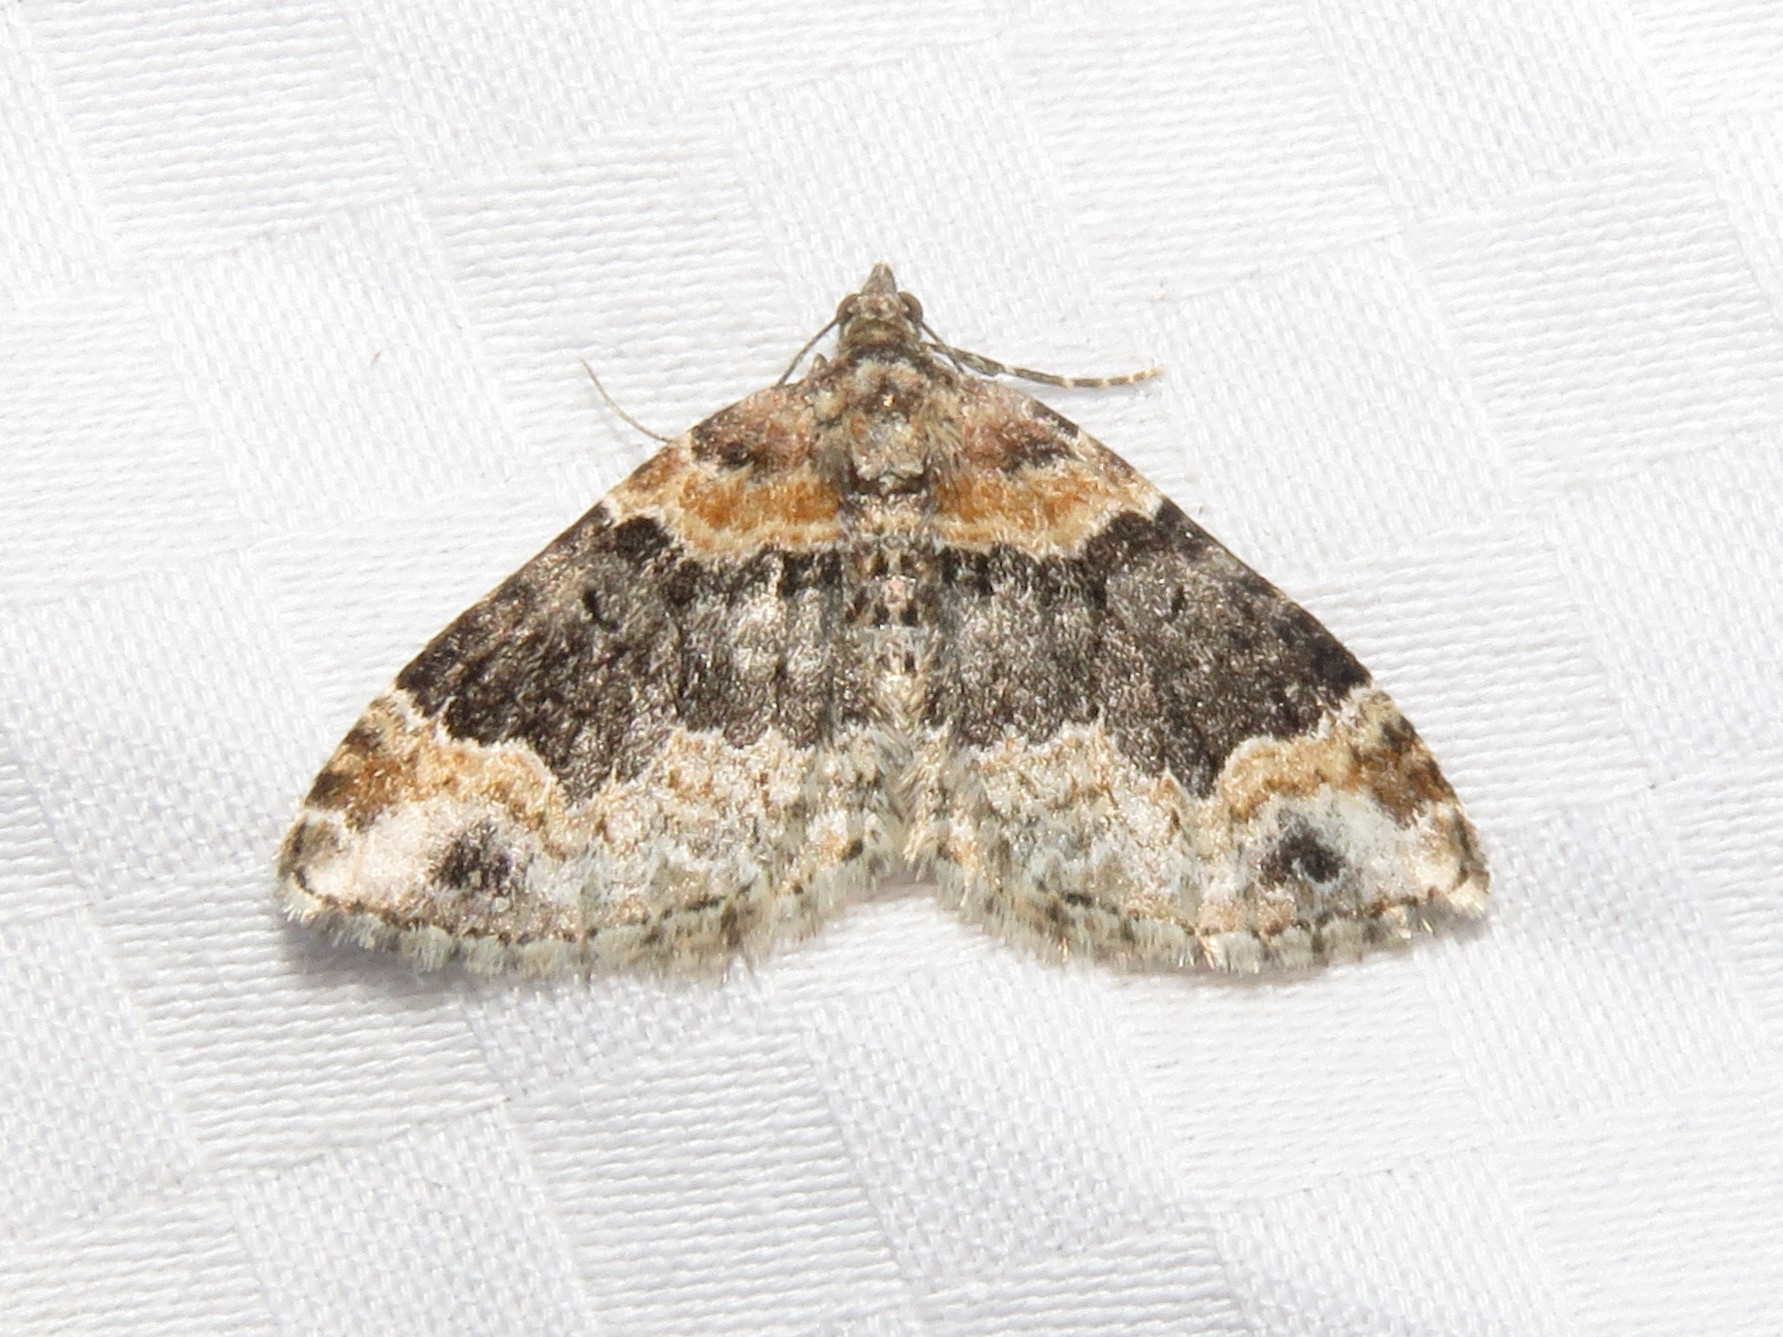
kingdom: Animalia
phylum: Arthropoda
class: Insecta
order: Lepidoptera
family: Geometridae
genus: Xanthorhoe
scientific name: Xanthorhoe ferrugata
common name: Dark-barred twin-spot carpet
